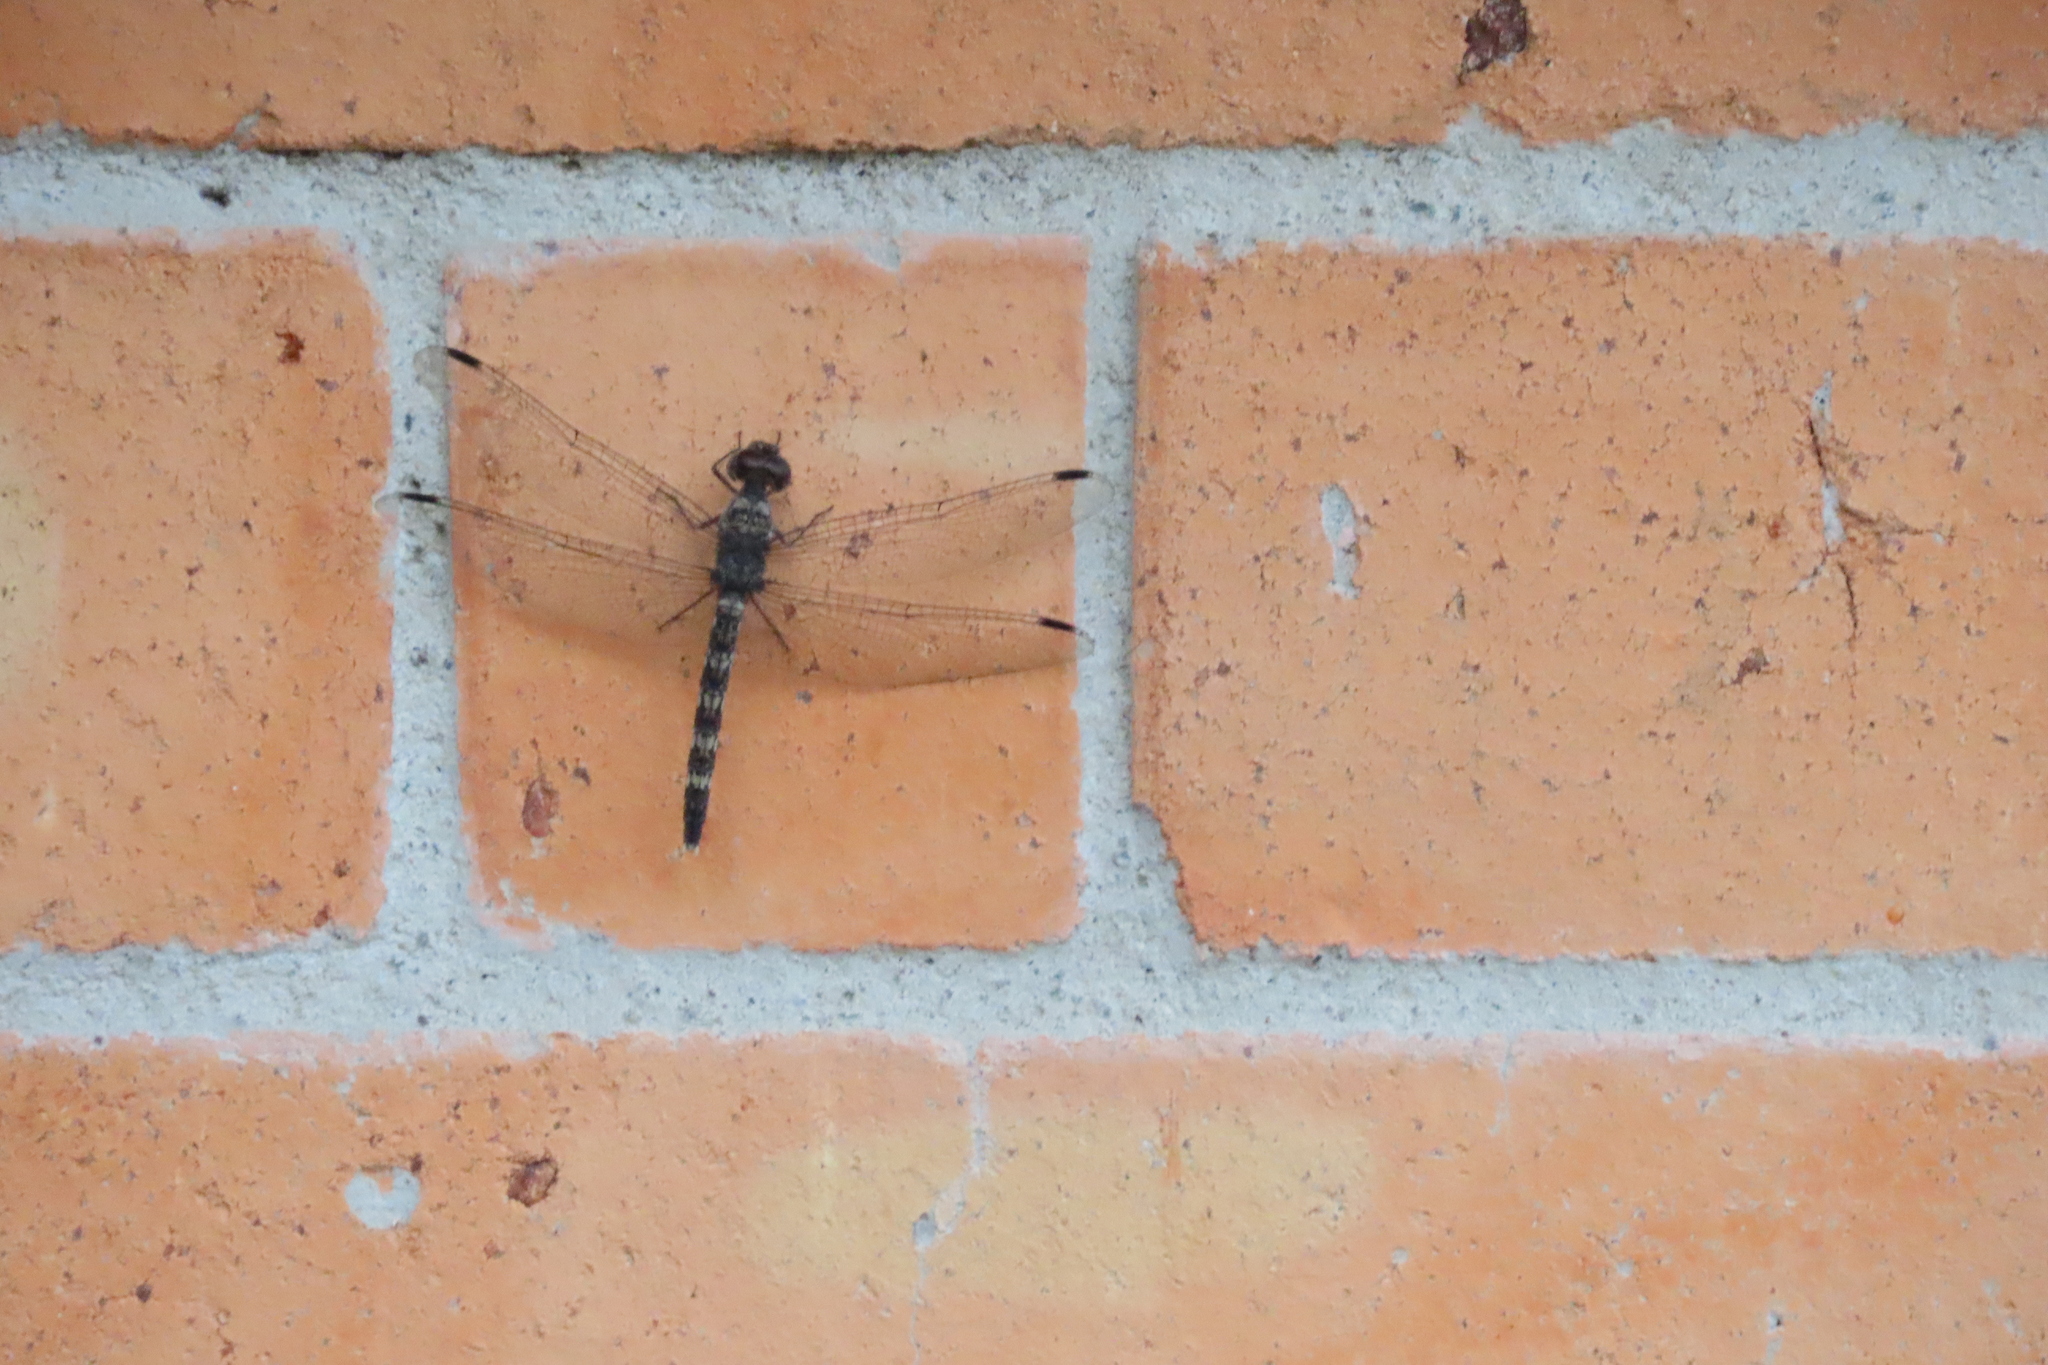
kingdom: Animalia
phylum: Arthropoda
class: Insecta
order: Odonata
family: Libellulidae
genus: Bradinopyga
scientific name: Bradinopyga geminata
